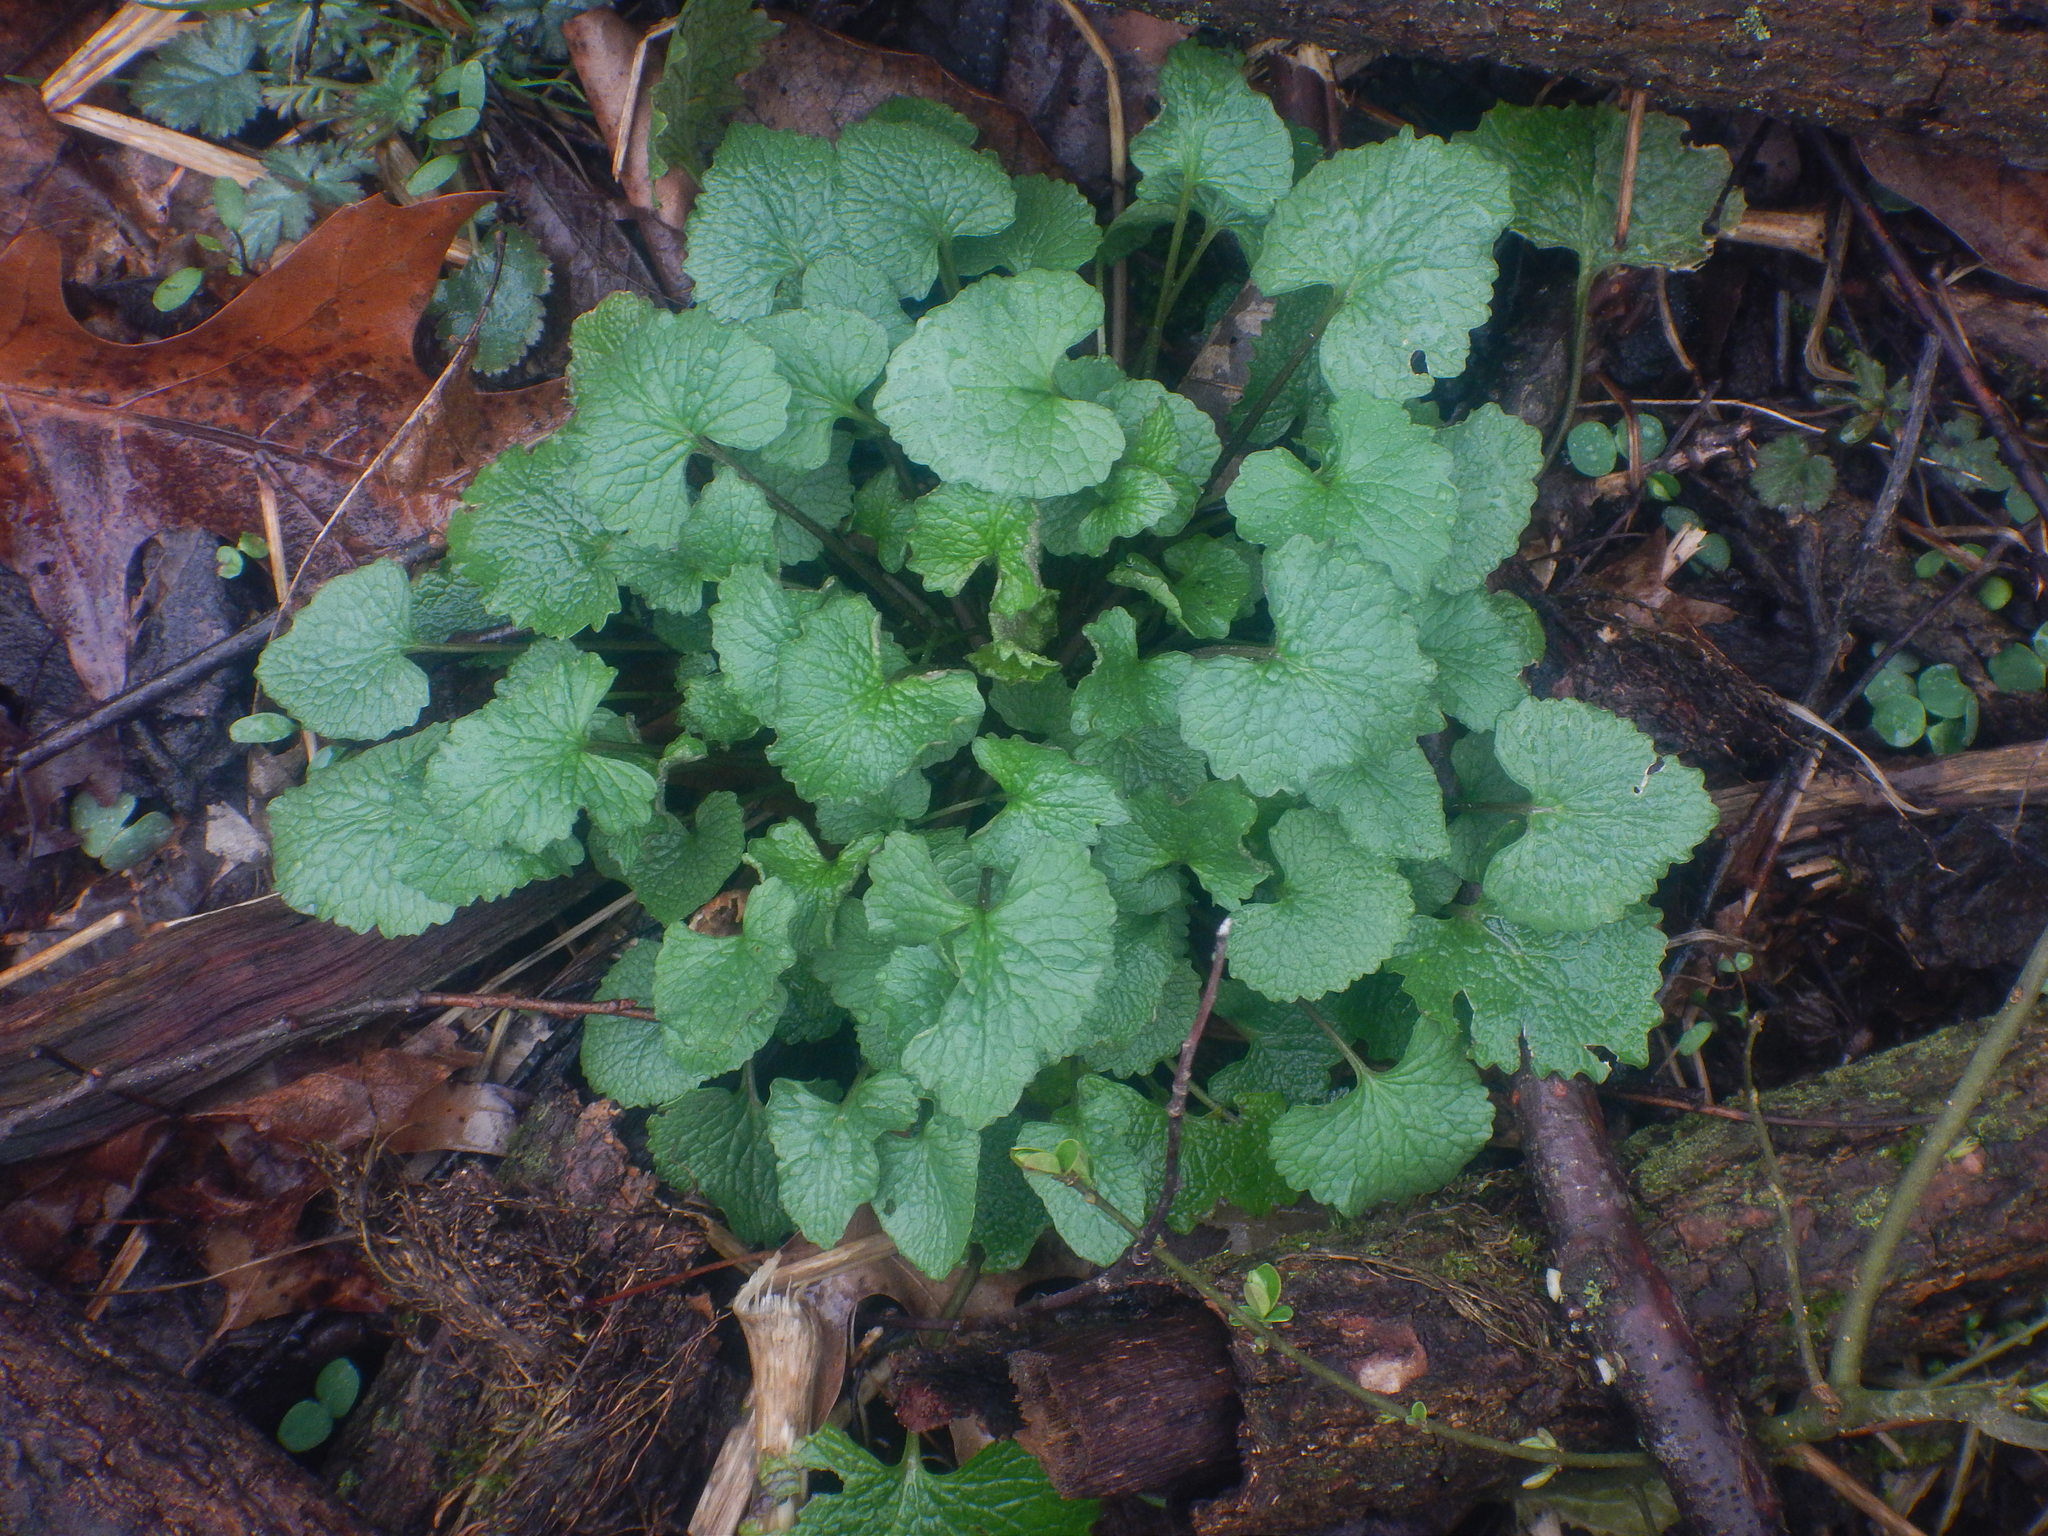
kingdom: Plantae
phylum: Tracheophyta
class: Magnoliopsida
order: Brassicales
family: Brassicaceae
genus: Alliaria
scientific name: Alliaria petiolata
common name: Garlic mustard
